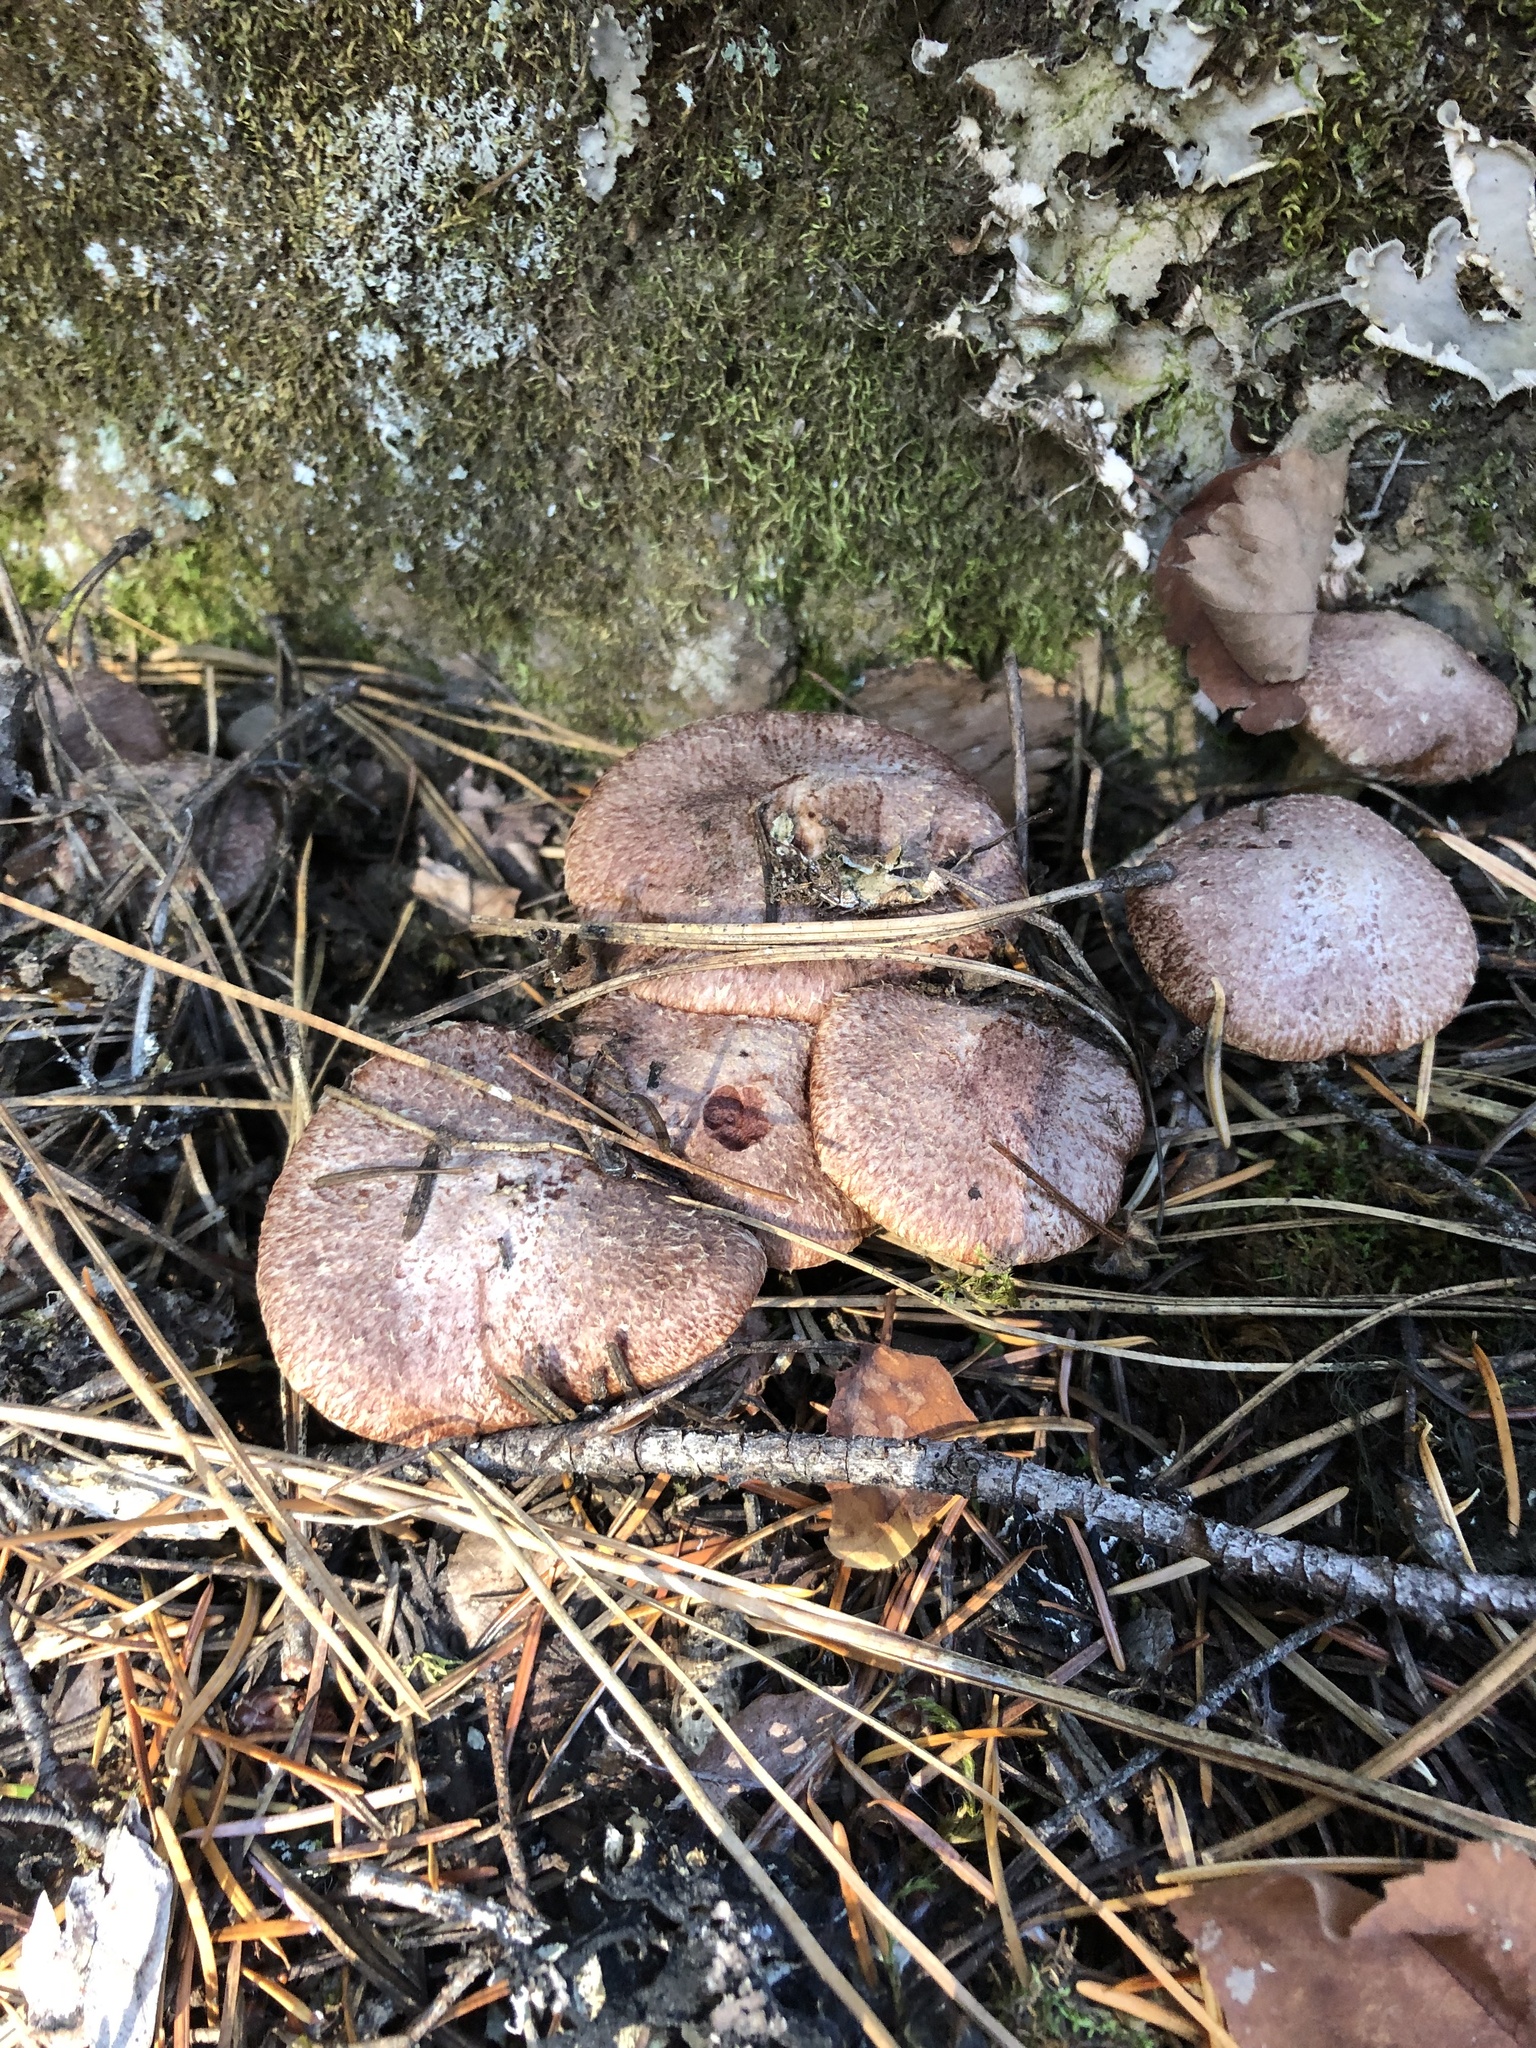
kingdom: Fungi
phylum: Basidiomycota
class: Agaricomycetes
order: Boletales
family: Suillaceae
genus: Suillus
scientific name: Suillus lakei
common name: Western painted suillus
